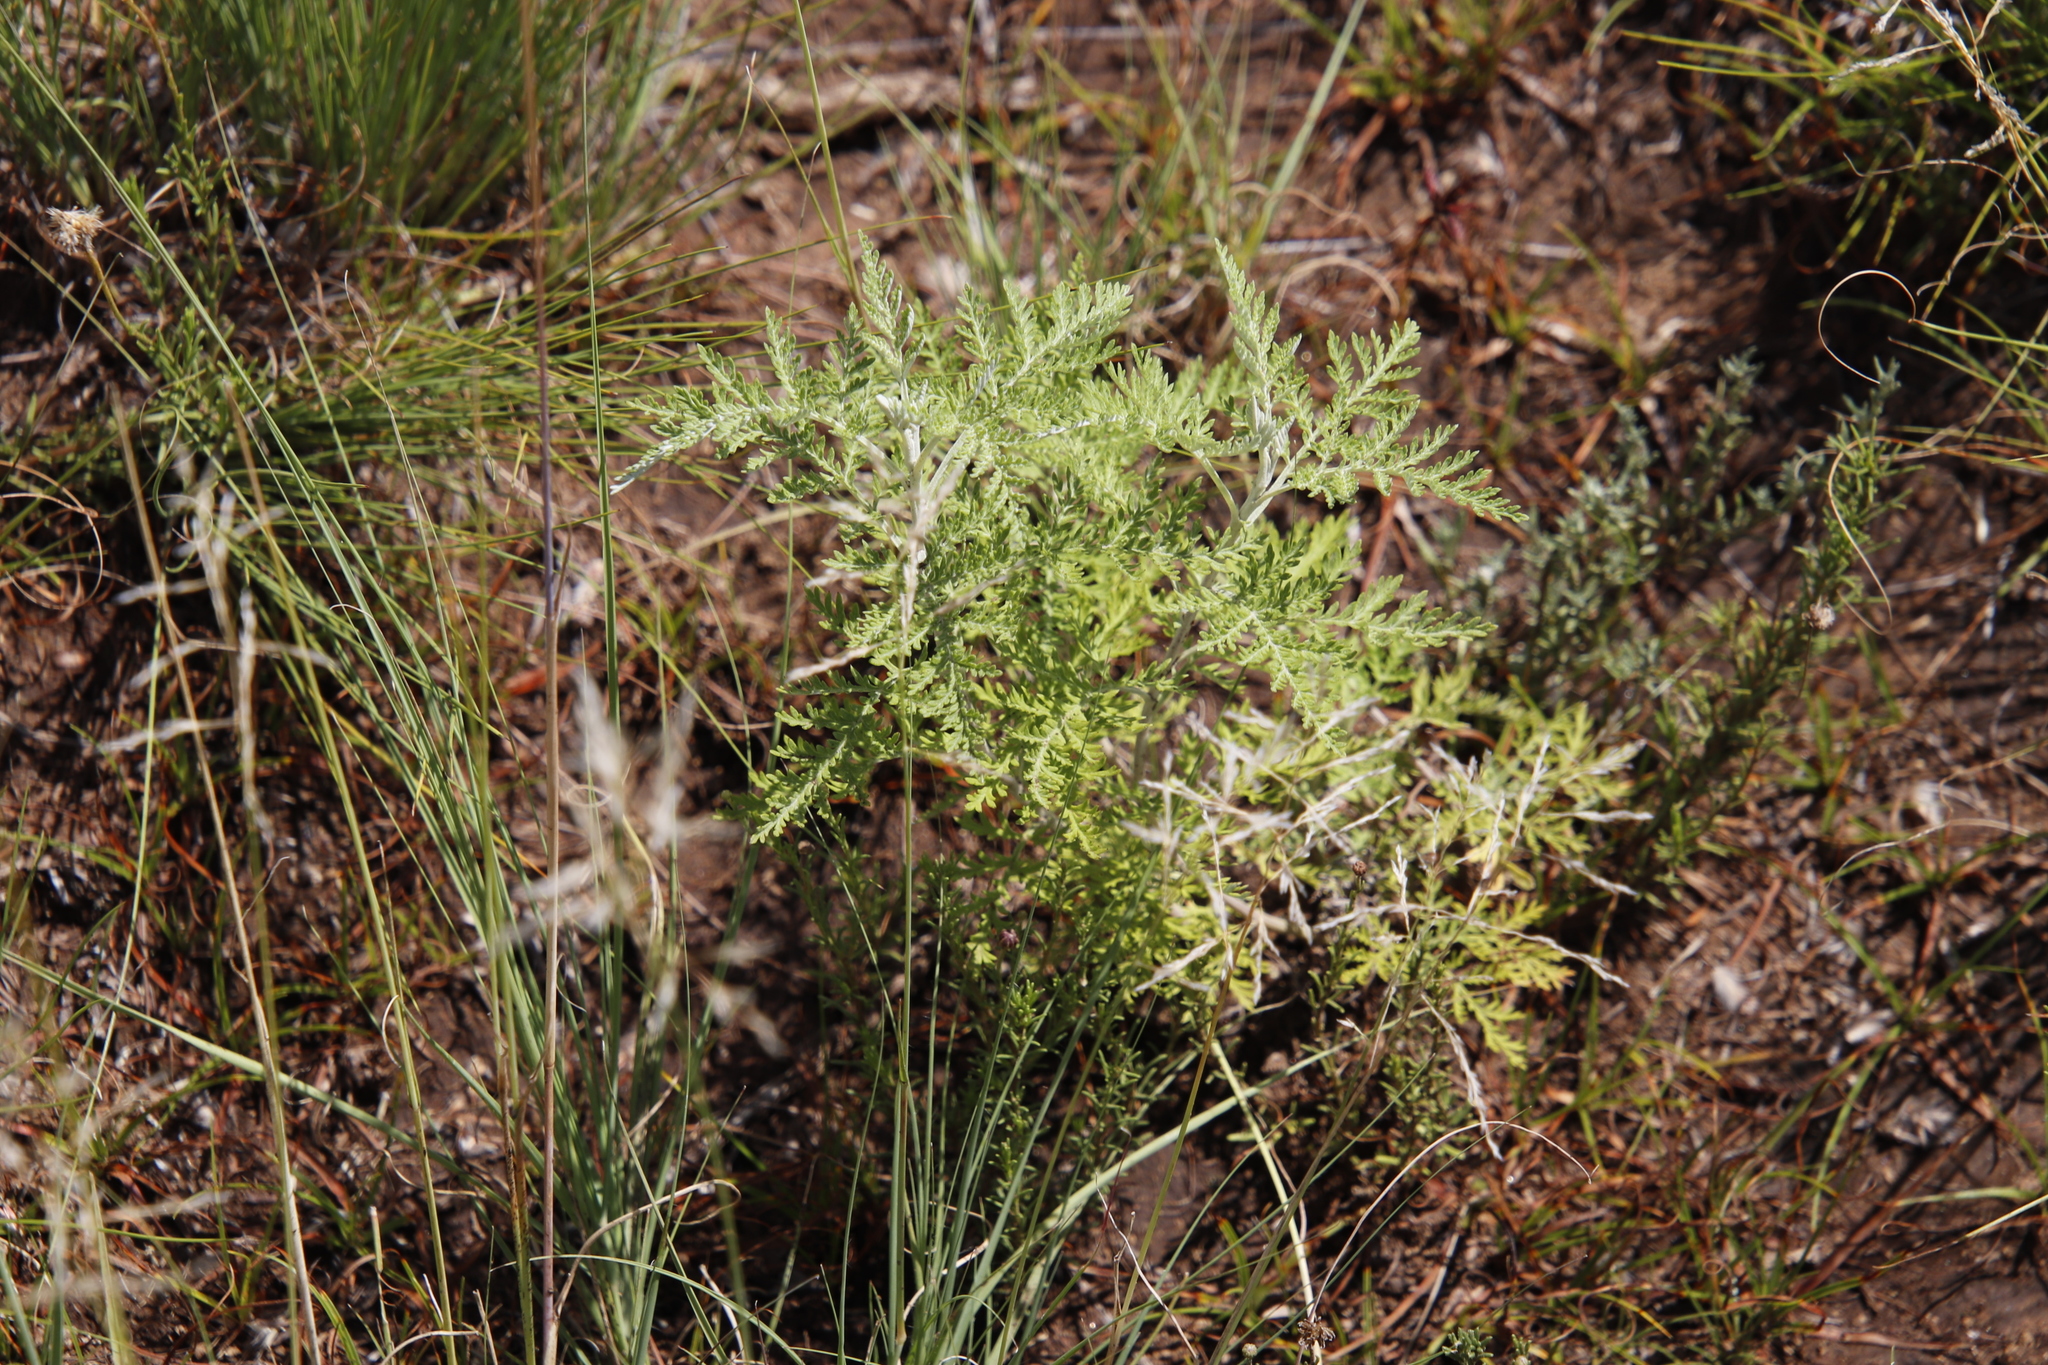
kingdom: Plantae
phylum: Tracheophyta
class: Magnoliopsida
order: Asterales
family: Asteraceae
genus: Artemisia
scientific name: Artemisia afra
